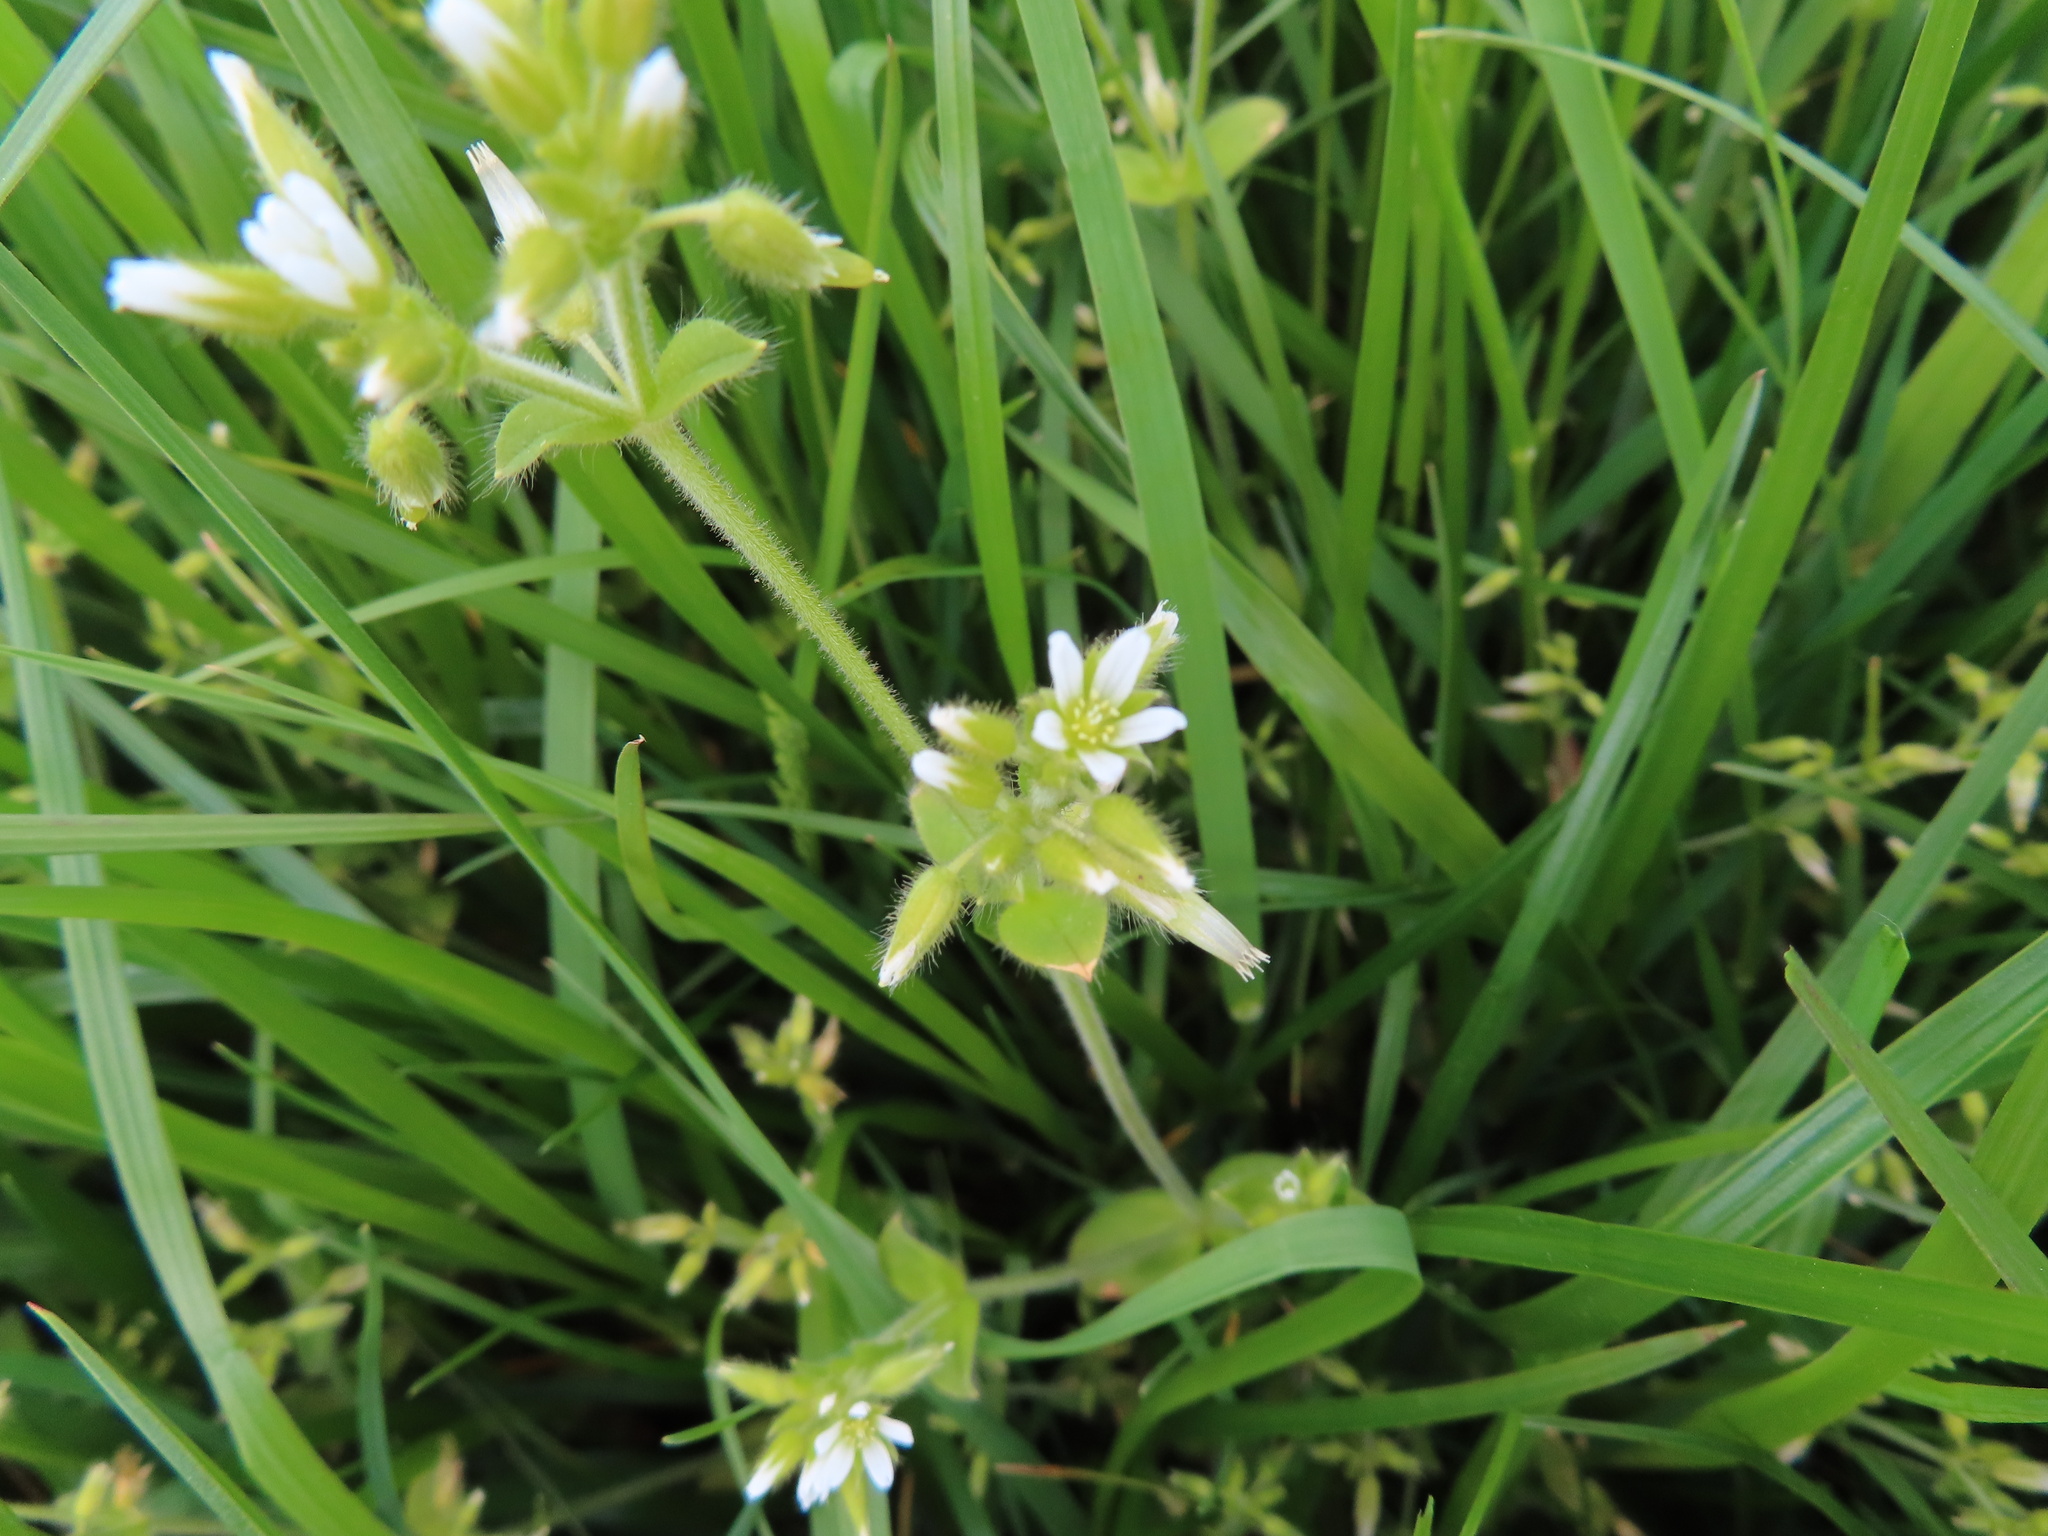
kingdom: Plantae
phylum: Tracheophyta
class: Magnoliopsida
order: Caryophyllales
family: Caryophyllaceae
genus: Cerastium
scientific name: Cerastium glomeratum
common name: Sticky chickweed
